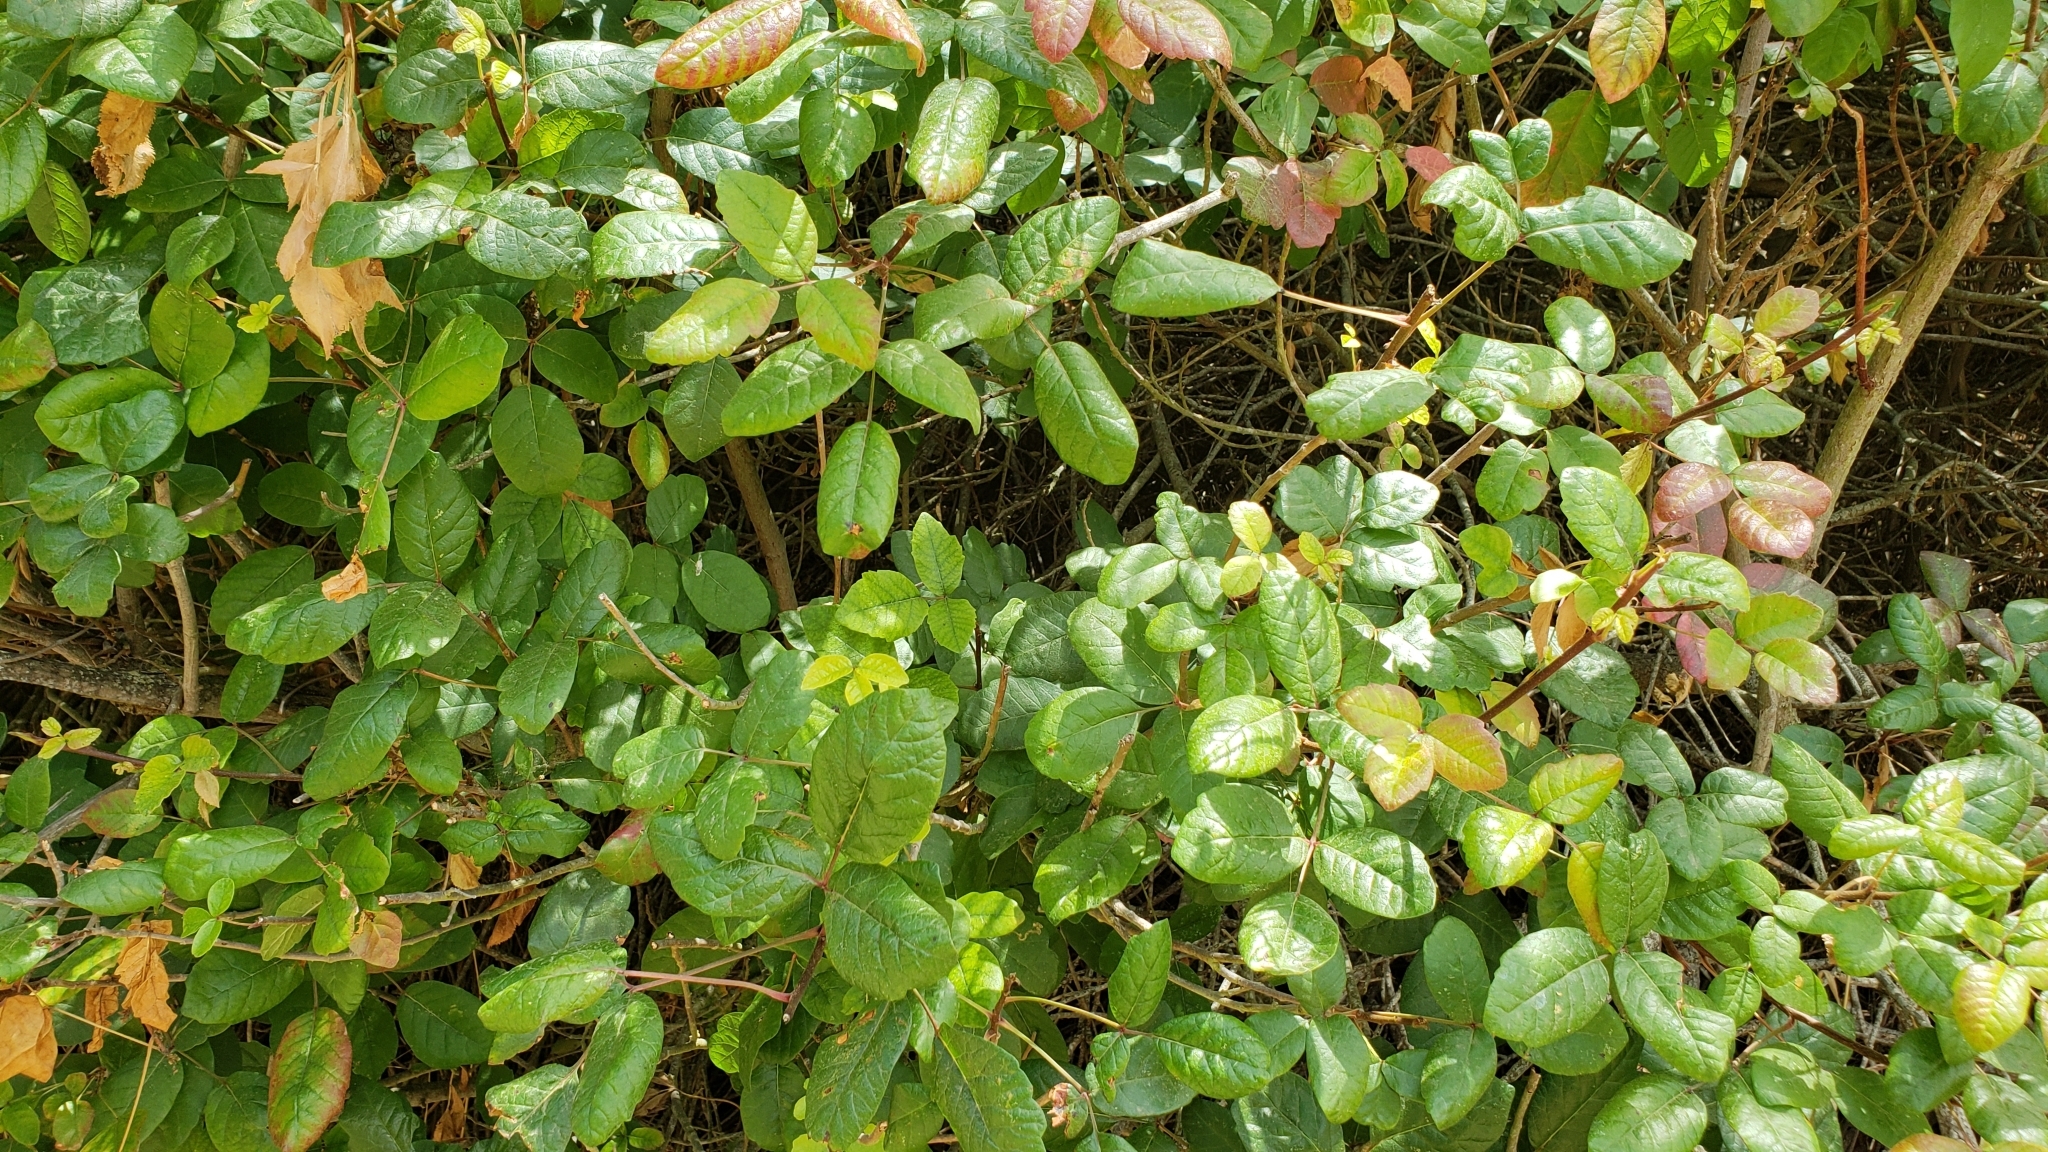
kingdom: Plantae
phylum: Tracheophyta
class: Magnoliopsida
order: Sapindales
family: Anacardiaceae
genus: Toxicodendron
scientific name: Toxicodendron diversilobum
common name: Pacific poison-oak
